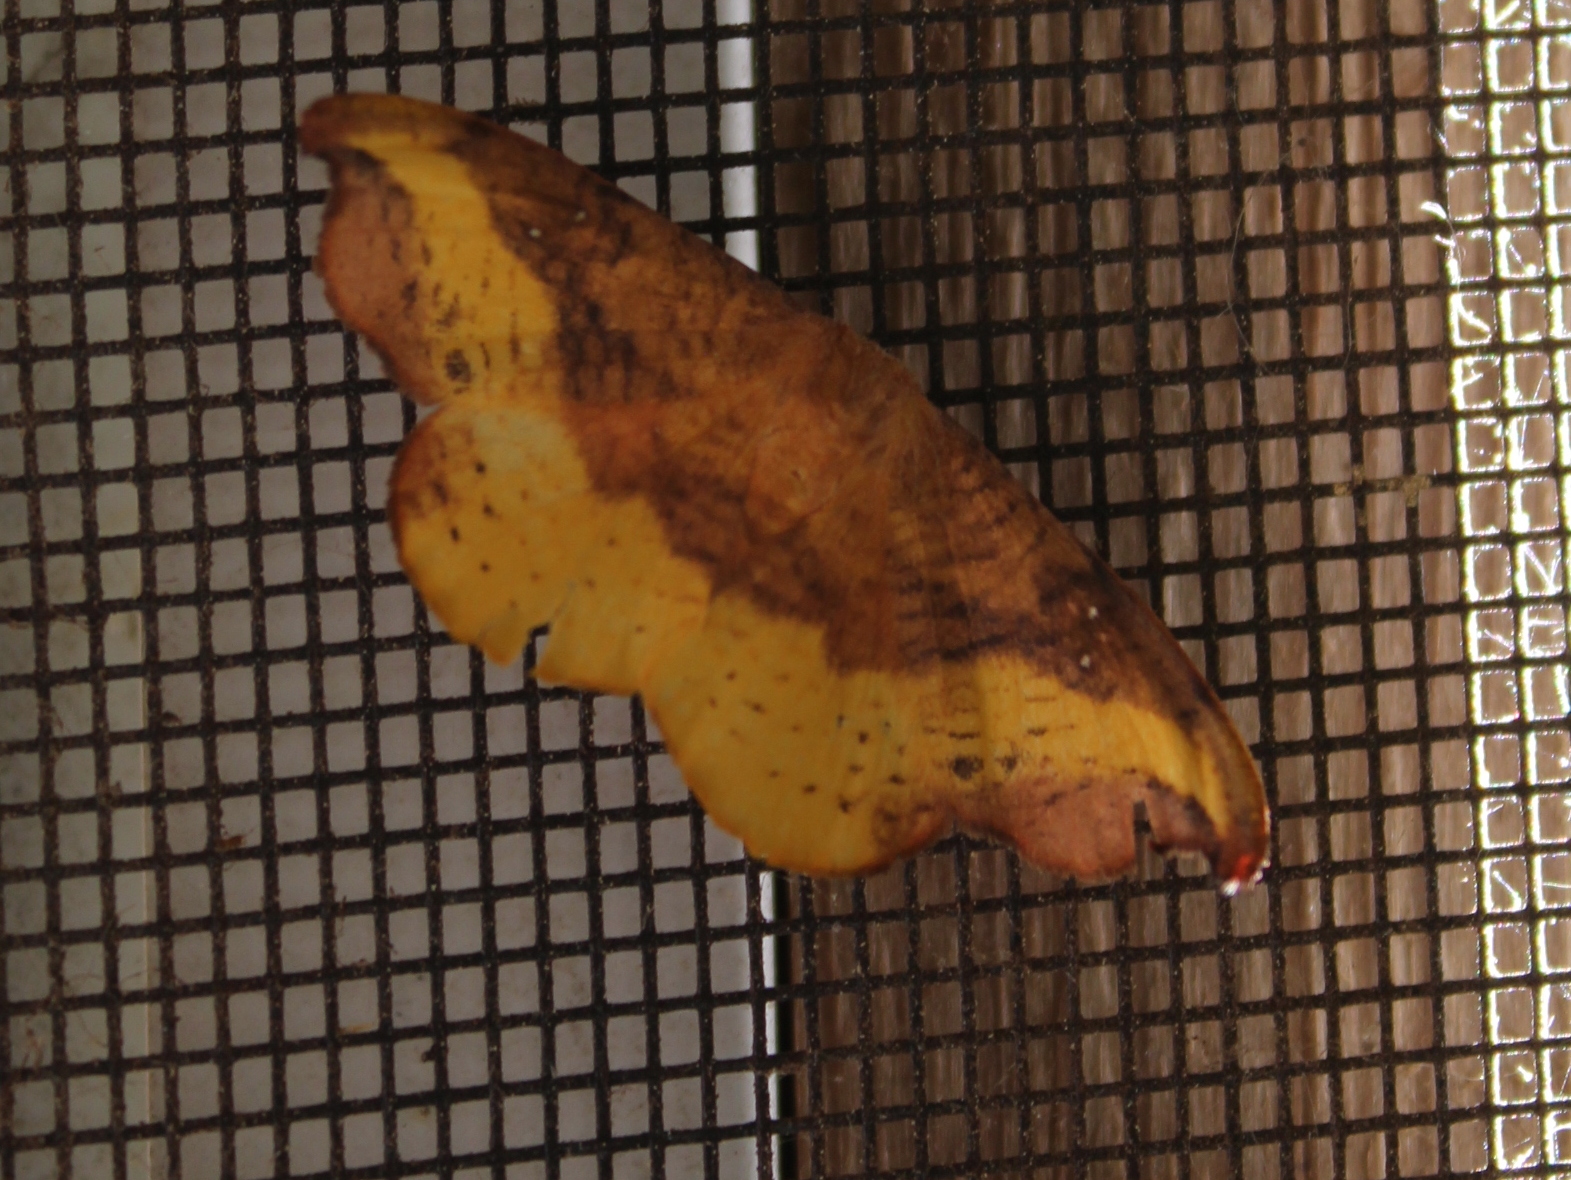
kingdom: Animalia
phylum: Arthropoda
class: Insecta
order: Lepidoptera
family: Drepanidae
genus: Oreta
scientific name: Oreta rosea
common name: Rose hooktip
